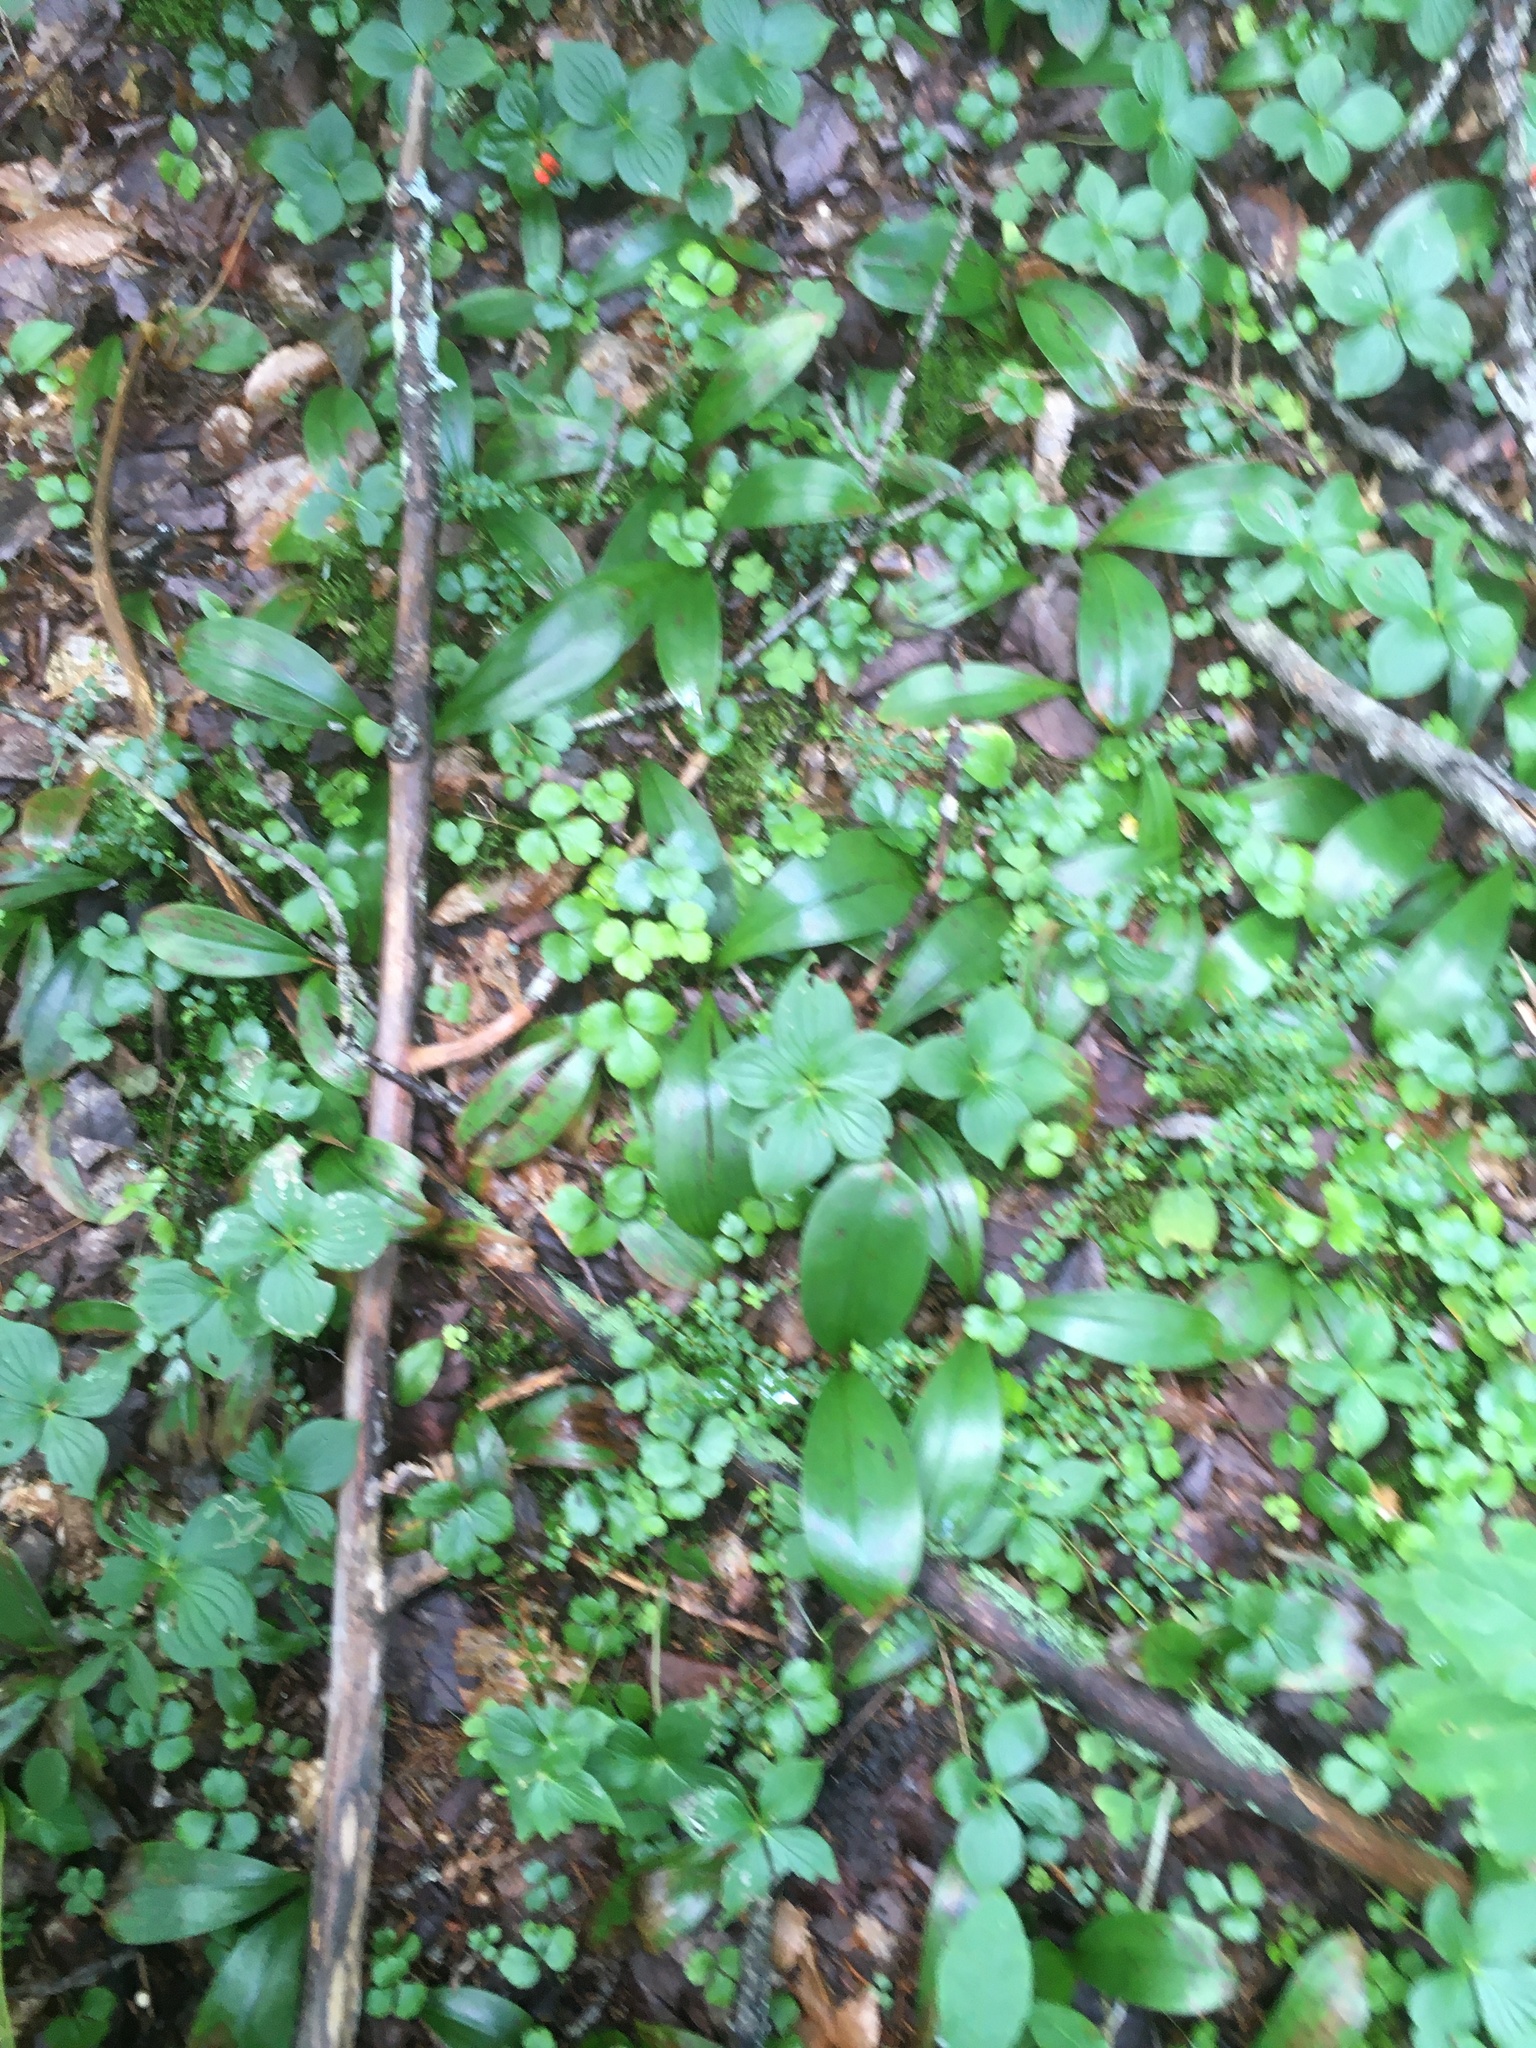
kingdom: Plantae
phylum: Tracheophyta
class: Liliopsida
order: Liliales
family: Liliaceae
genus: Clintonia
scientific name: Clintonia borealis
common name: Yellow clintonia
